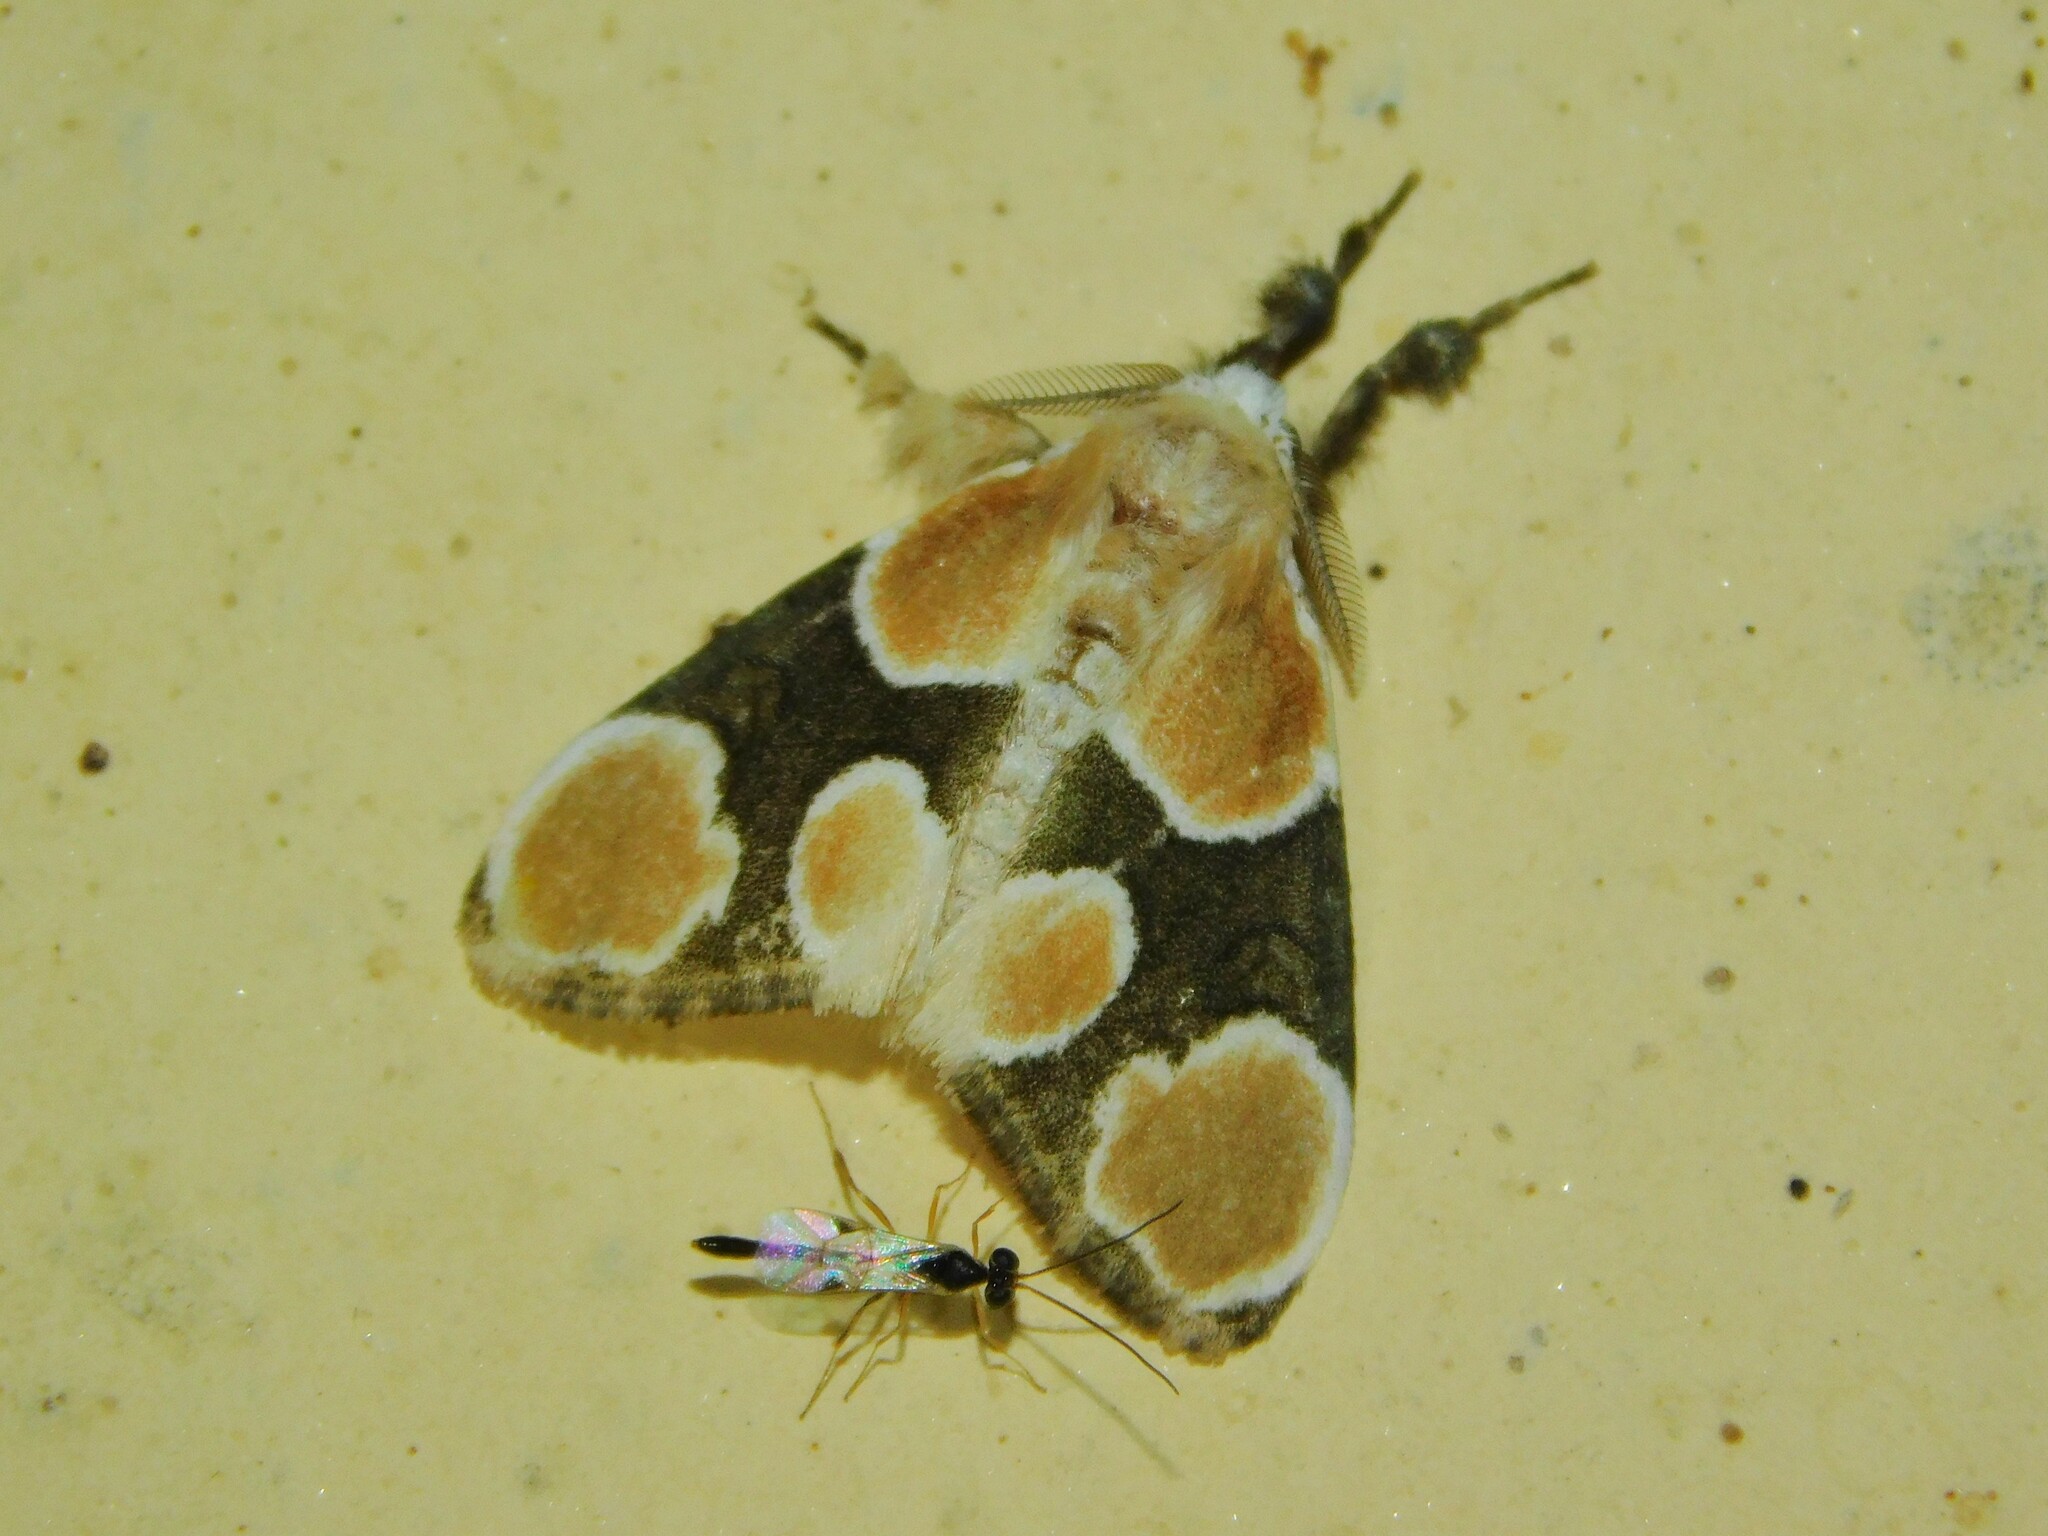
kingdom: Animalia
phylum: Arthropoda
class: Insecta
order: Lepidoptera
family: Erebidae
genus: Dasychira
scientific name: Dasychira triselena
